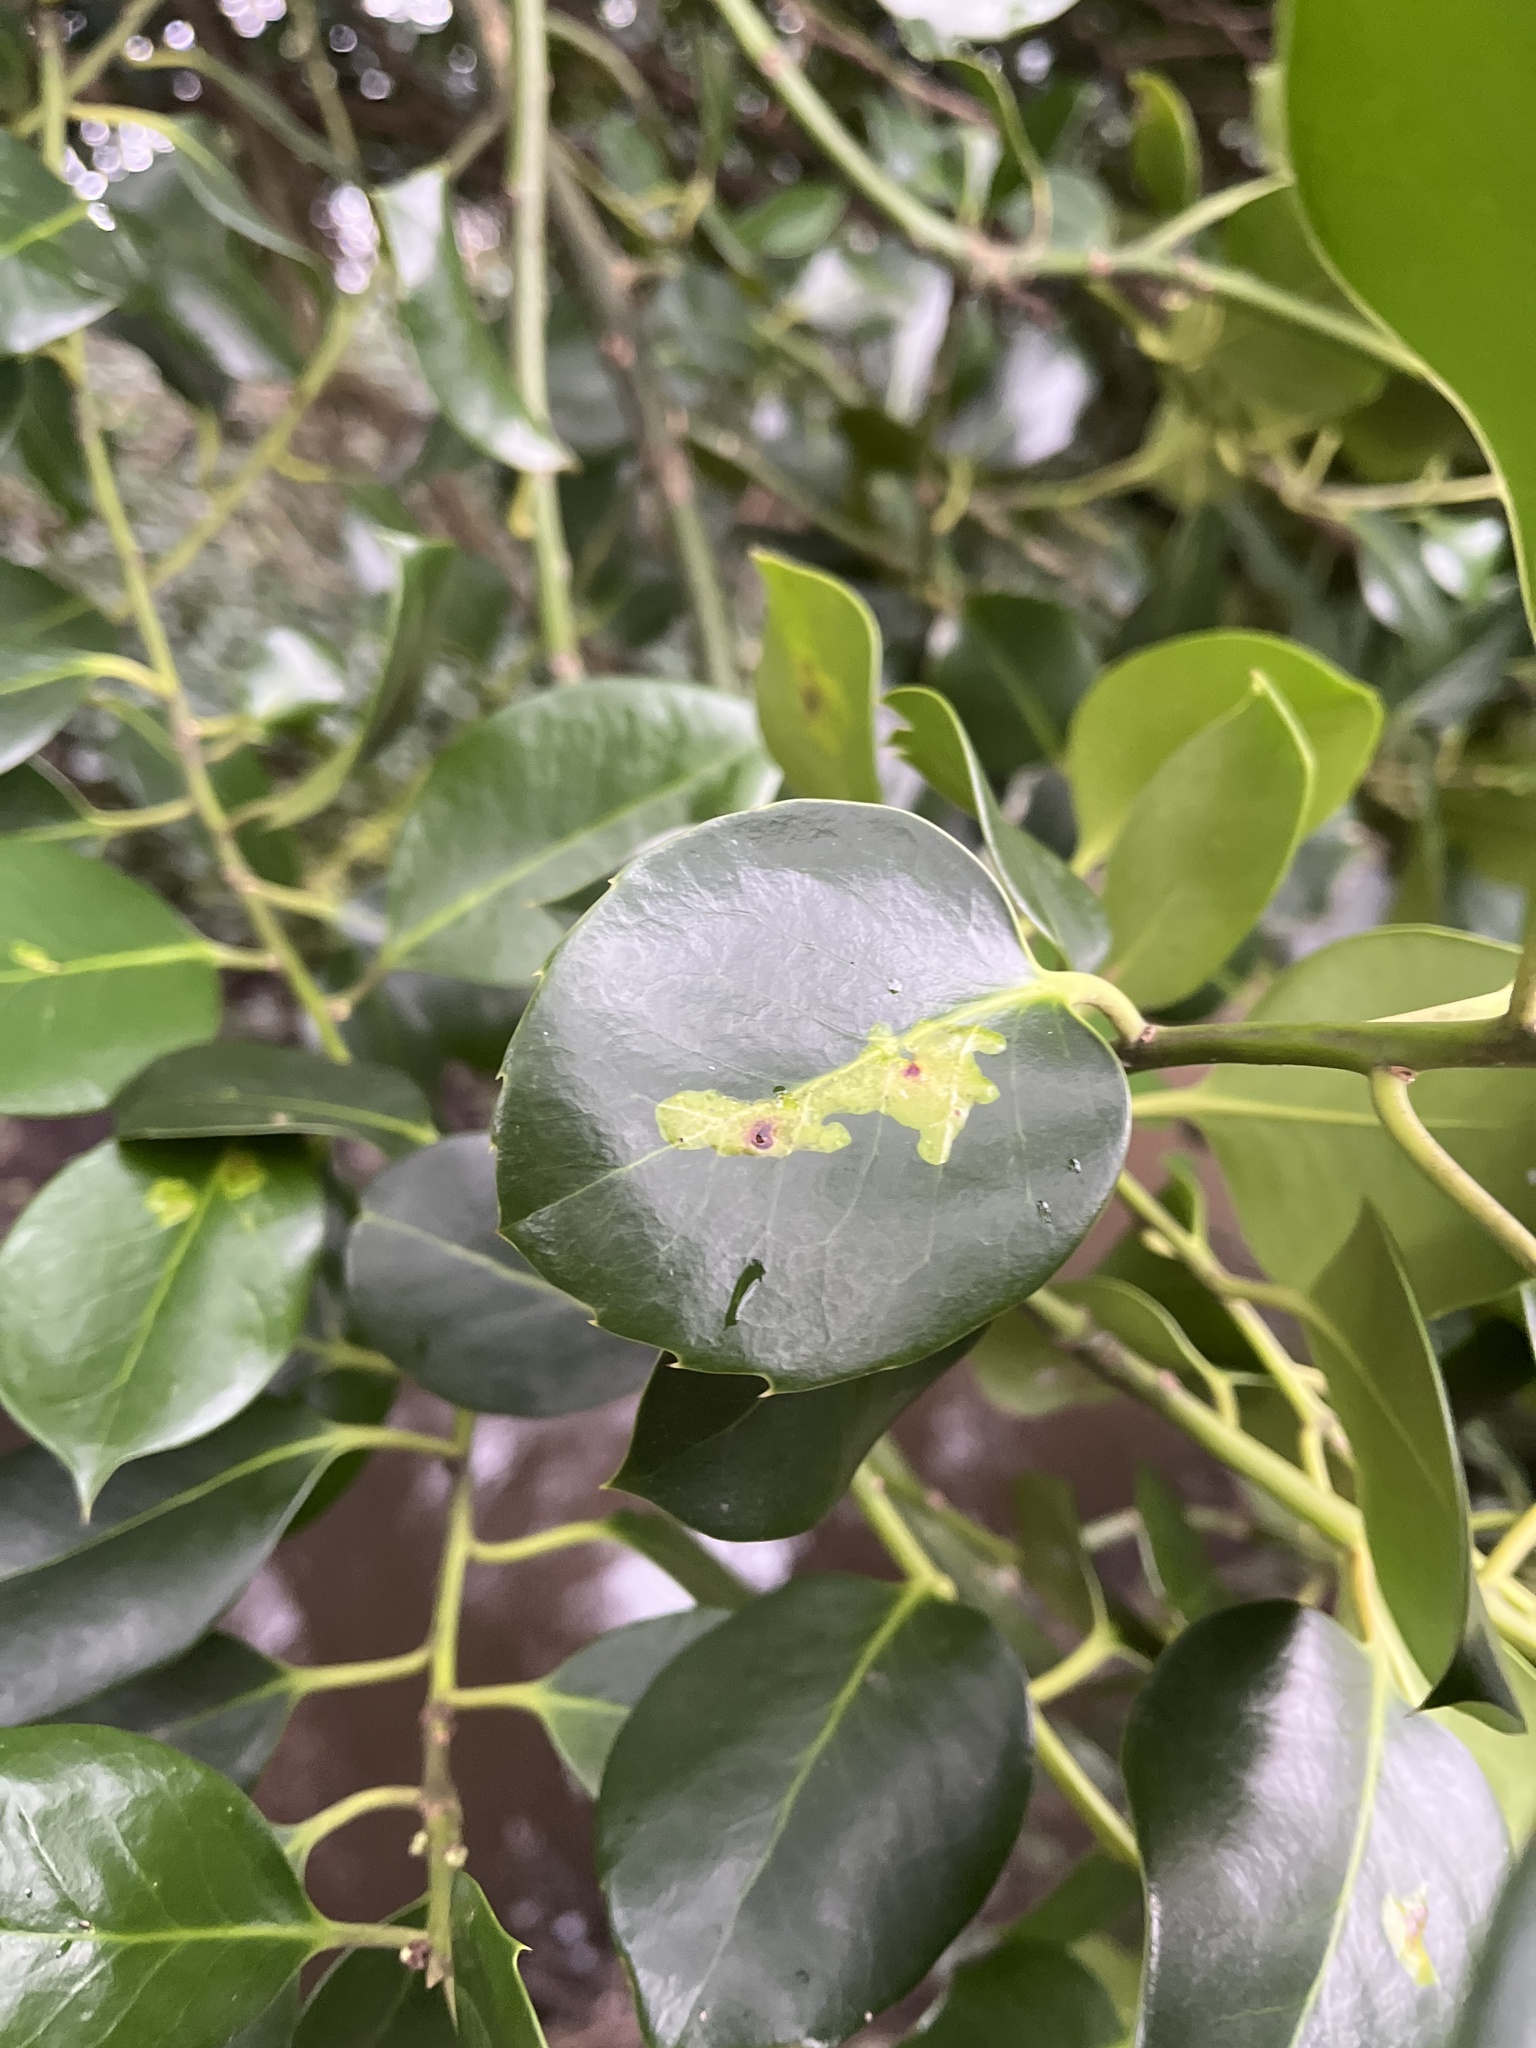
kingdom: Animalia
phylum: Arthropoda
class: Insecta
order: Diptera
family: Agromyzidae
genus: Phytomyza
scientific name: Phytomyza ilicis
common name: Holly leafminer
